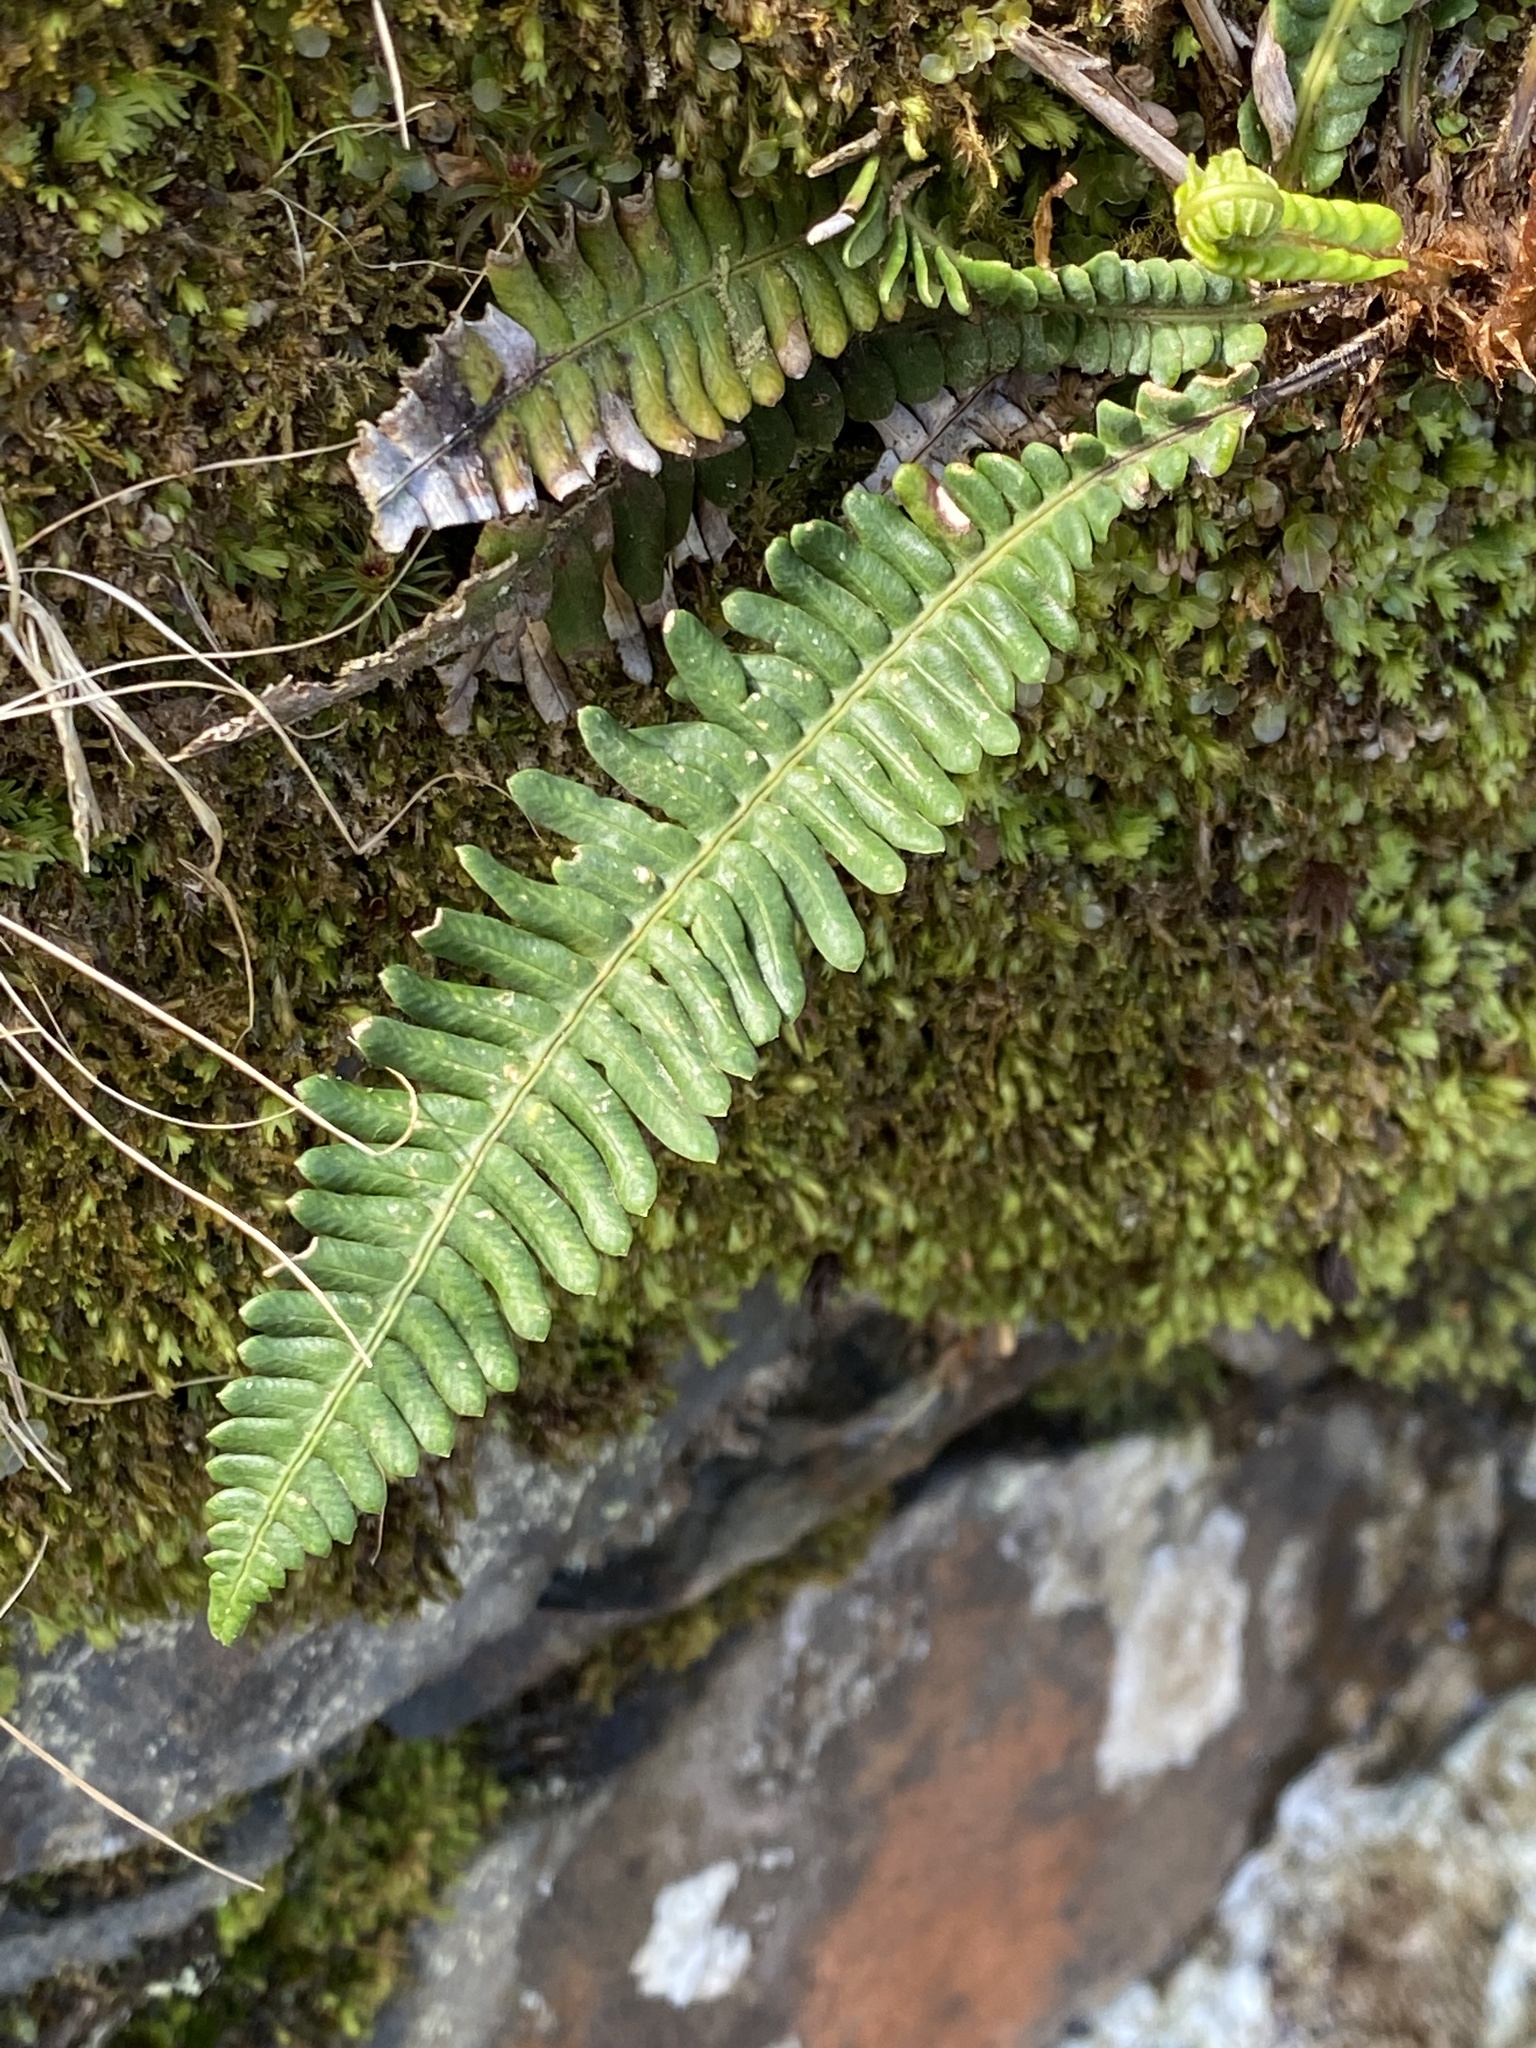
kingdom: Plantae
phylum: Tracheophyta
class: Polypodiopsida
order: Polypodiales
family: Blechnaceae
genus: Struthiopteris
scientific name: Struthiopteris spicant
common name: Deer fern
